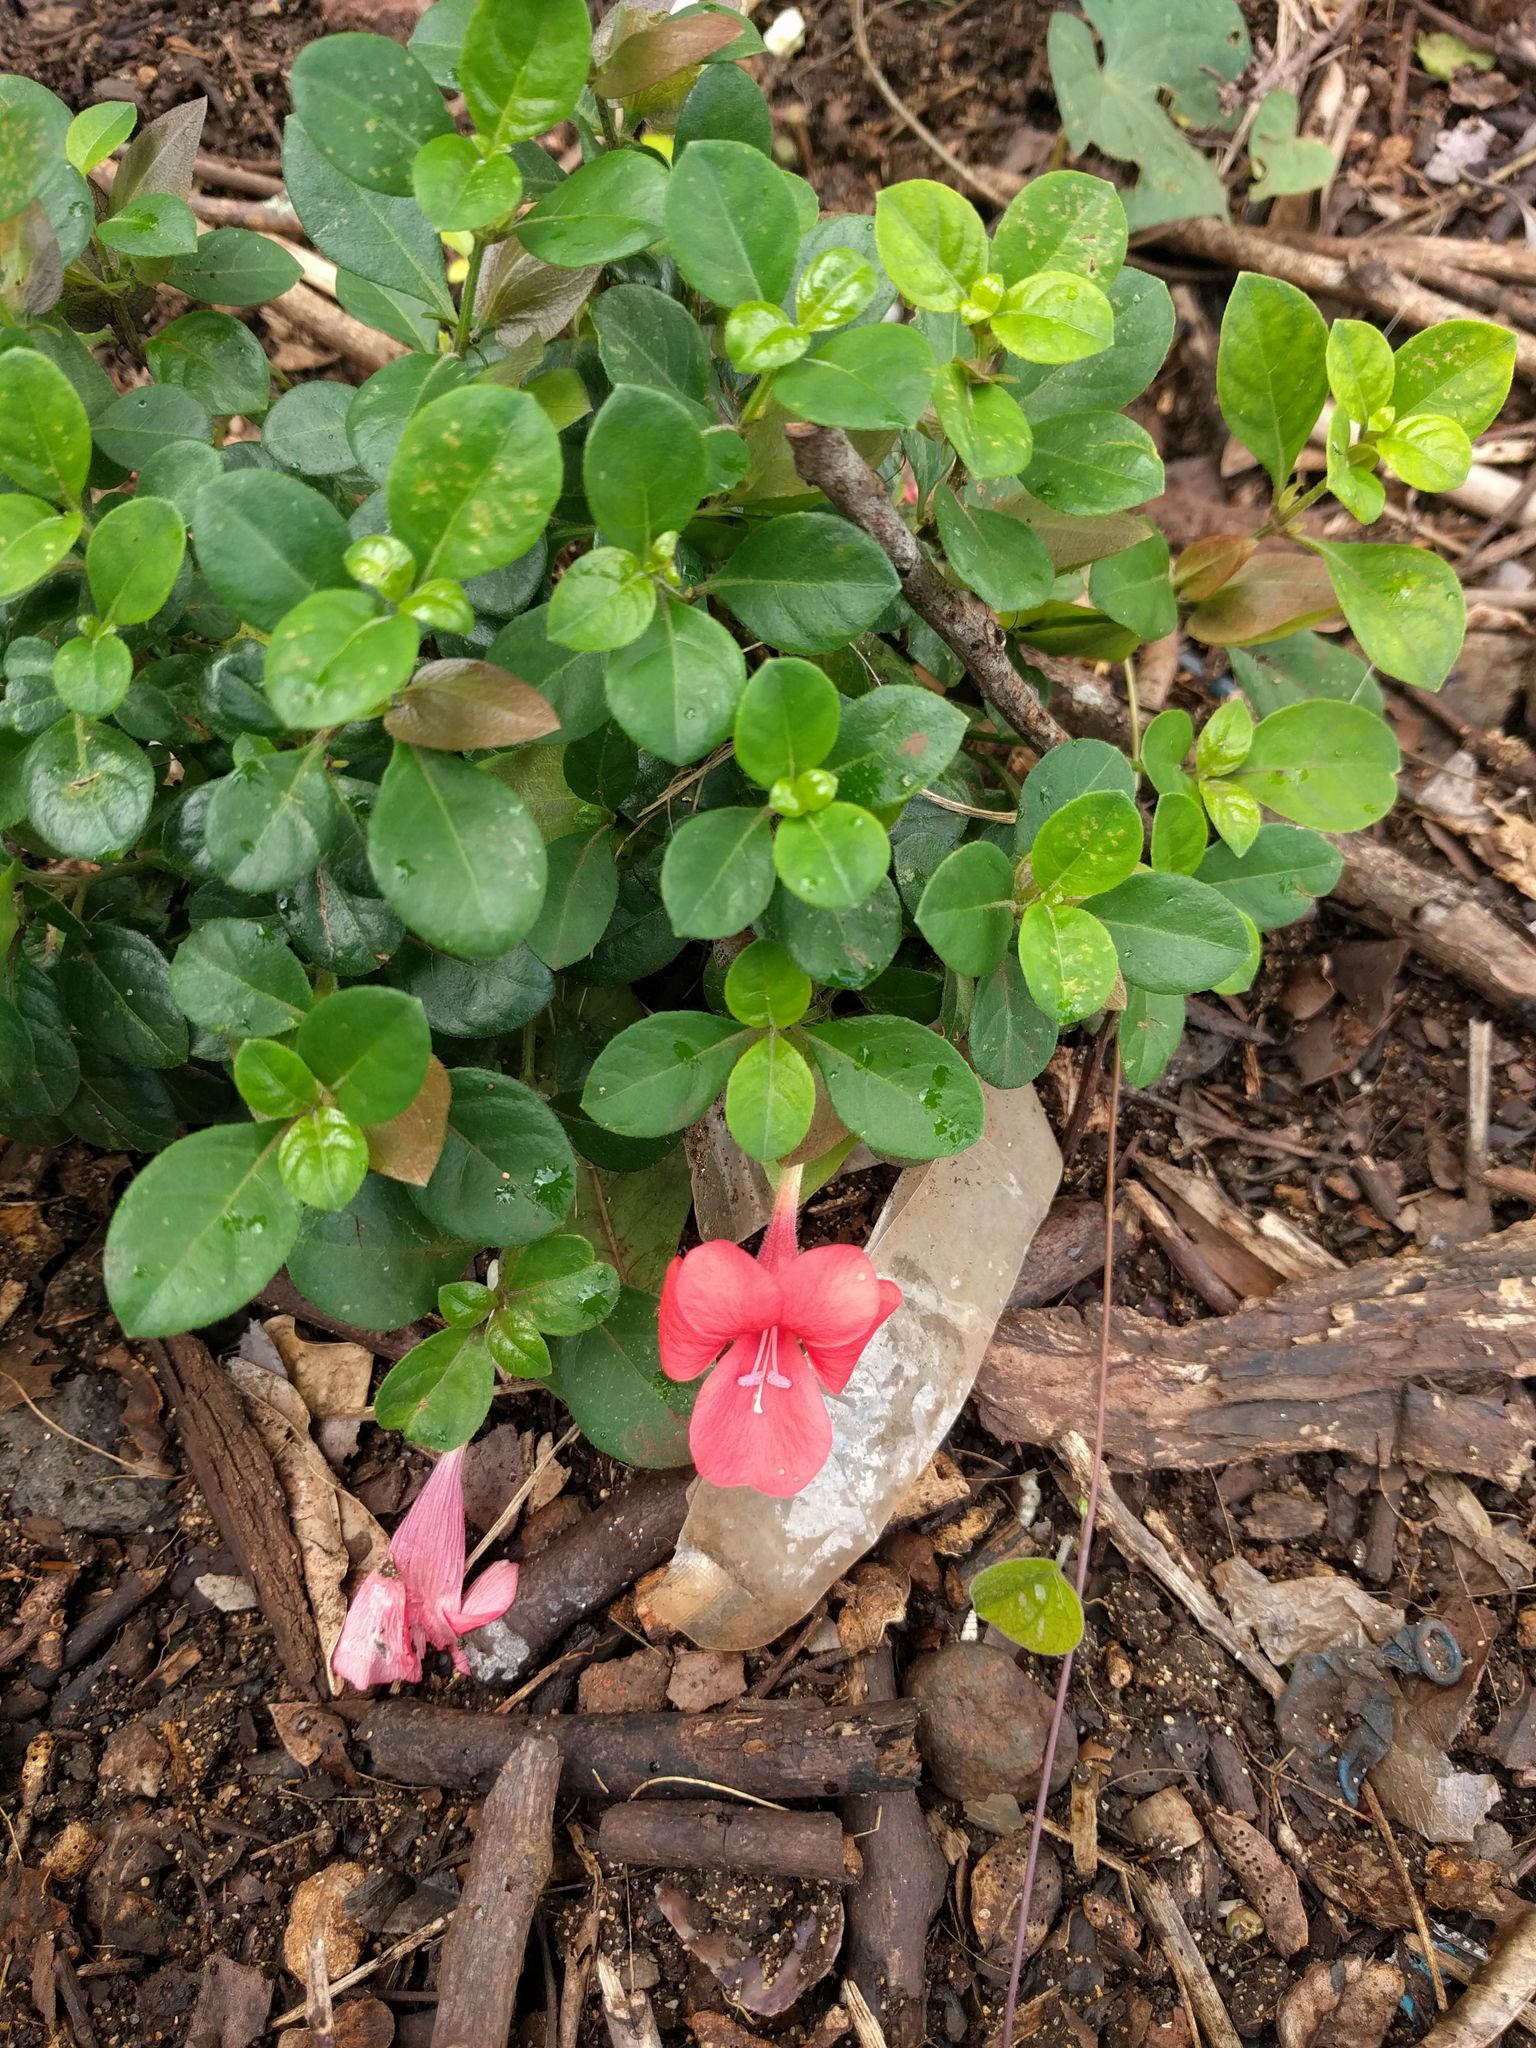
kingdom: Plantae
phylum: Tracheophyta
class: Magnoliopsida
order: Lamiales
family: Acanthaceae
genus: Barleria
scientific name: Barleria repens
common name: Pink-ruellia
